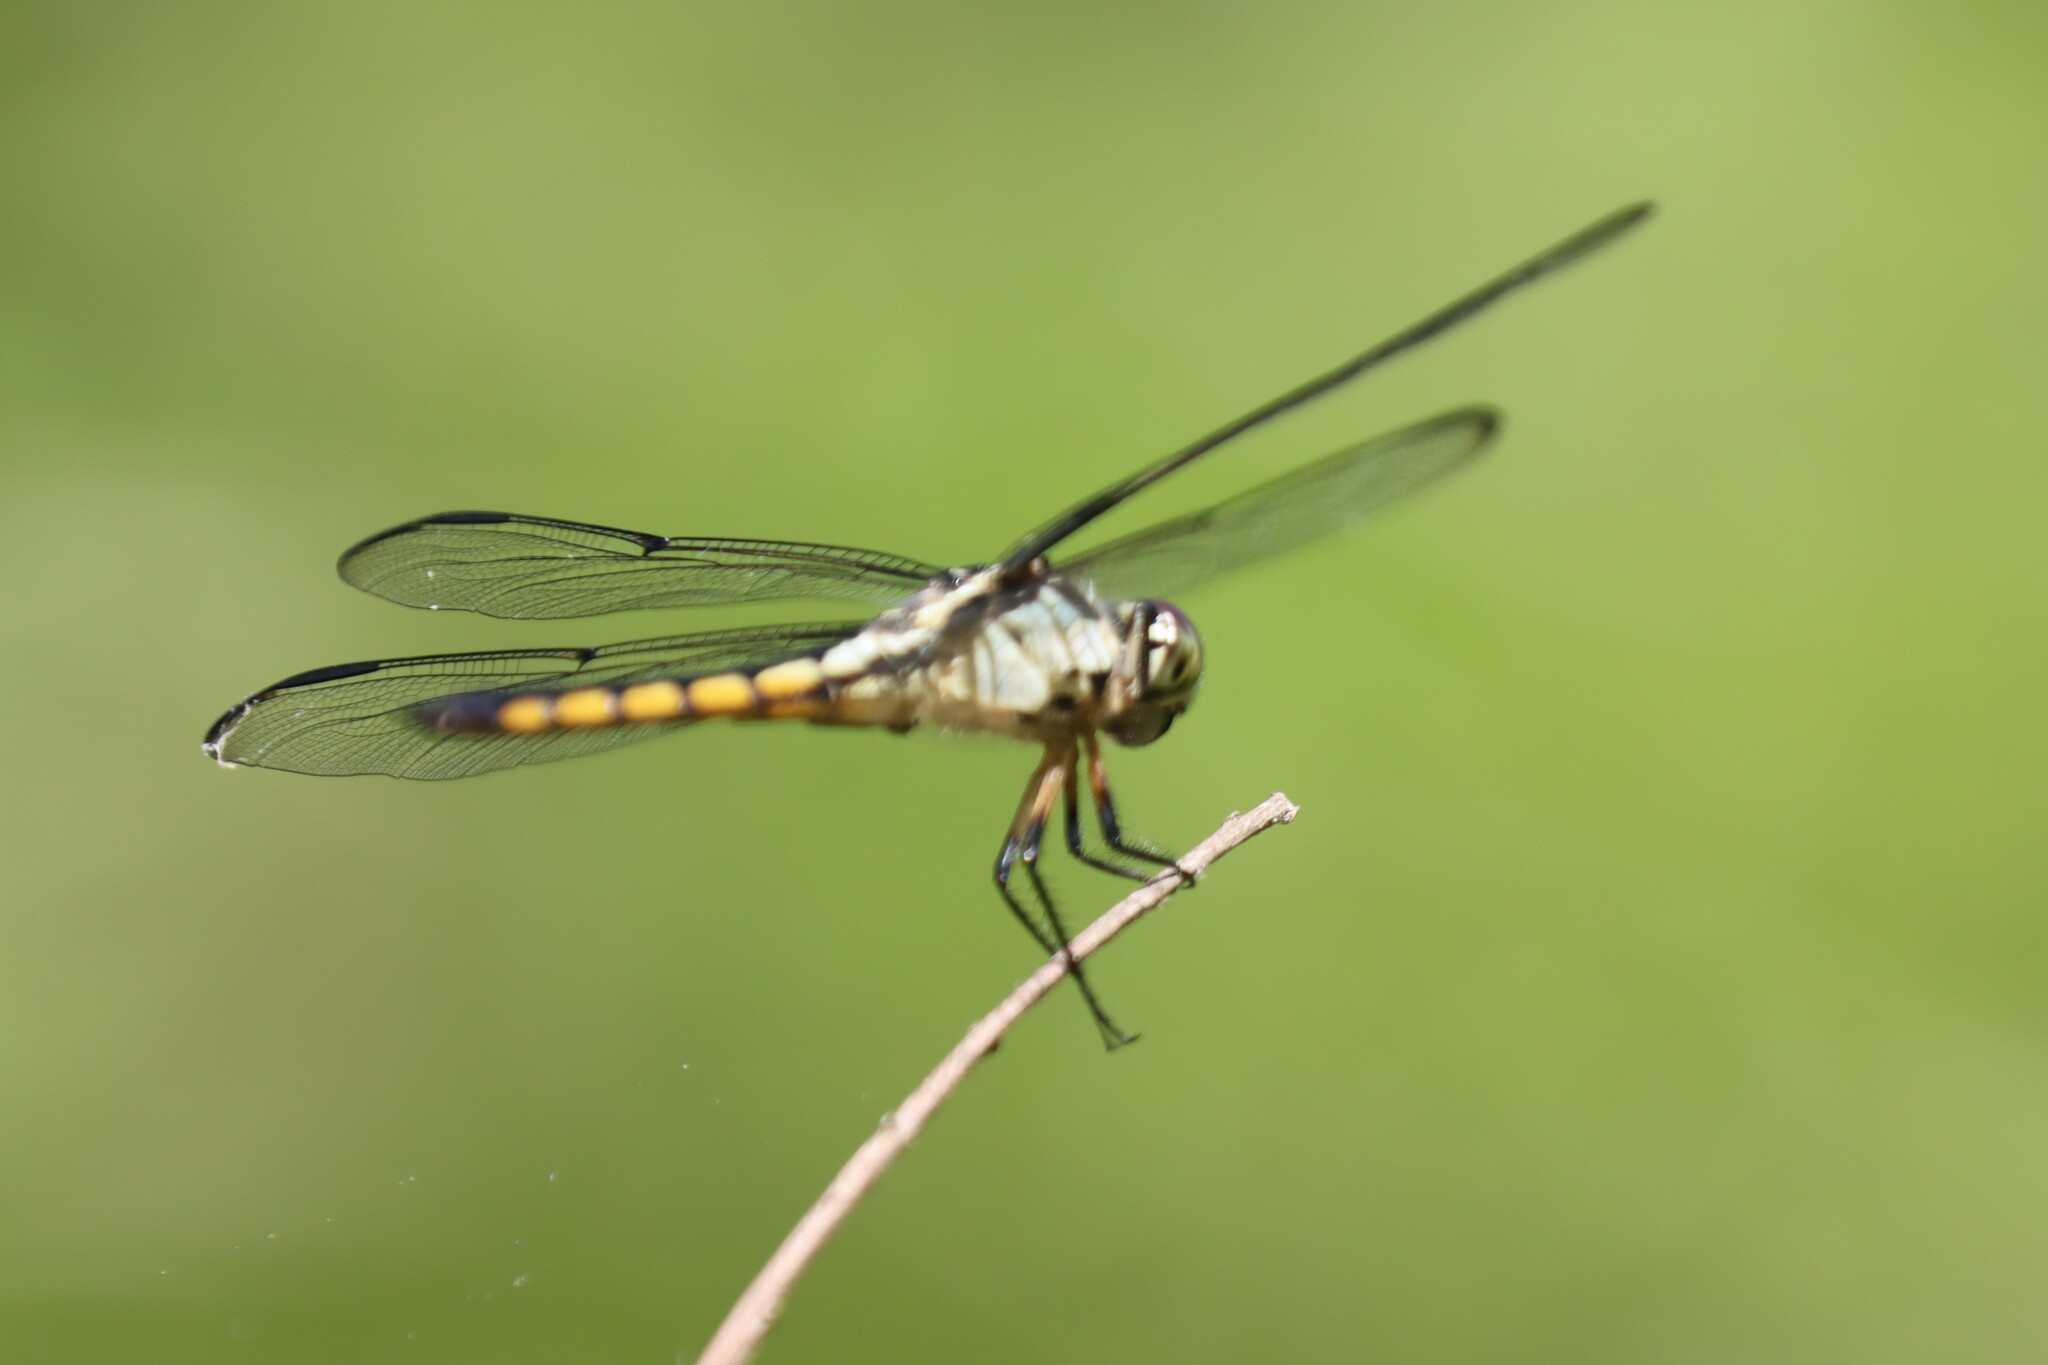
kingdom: Animalia
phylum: Arthropoda
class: Insecta
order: Odonata
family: Libellulidae
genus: Libellula
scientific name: Libellula vibrans
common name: Great blue skimmer
